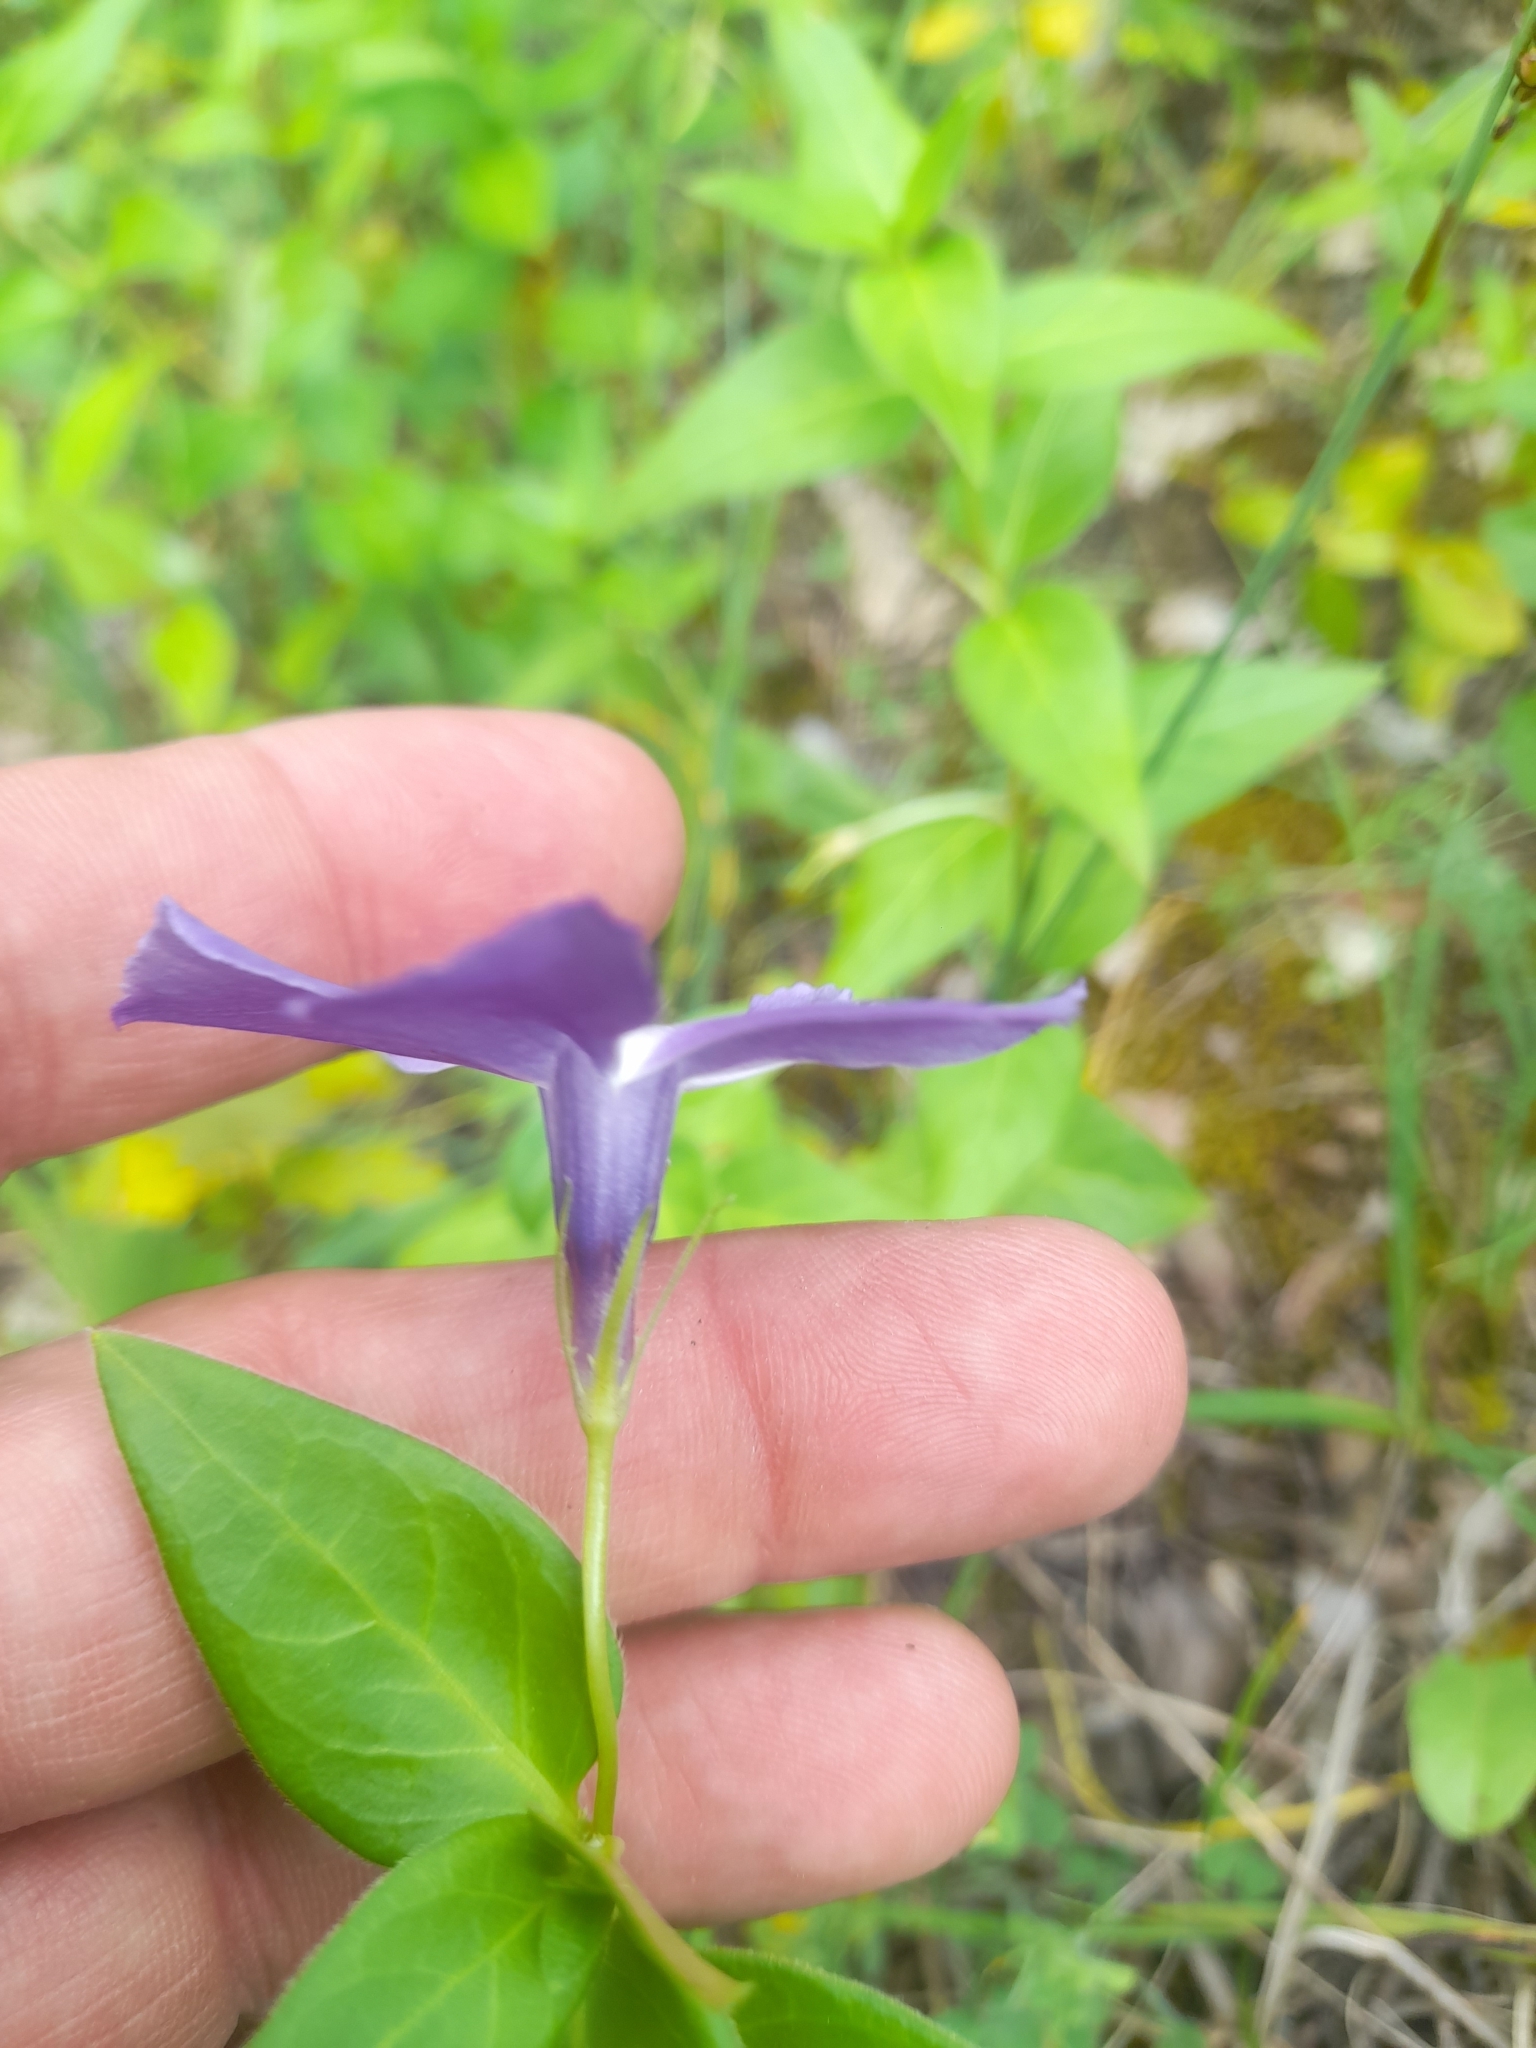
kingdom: Plantae
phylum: Tracheophyta
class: Magnoliopsida
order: Gentianales
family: Apocynaceae
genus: Vinca
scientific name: Vinca major
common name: Greater periwinkle
